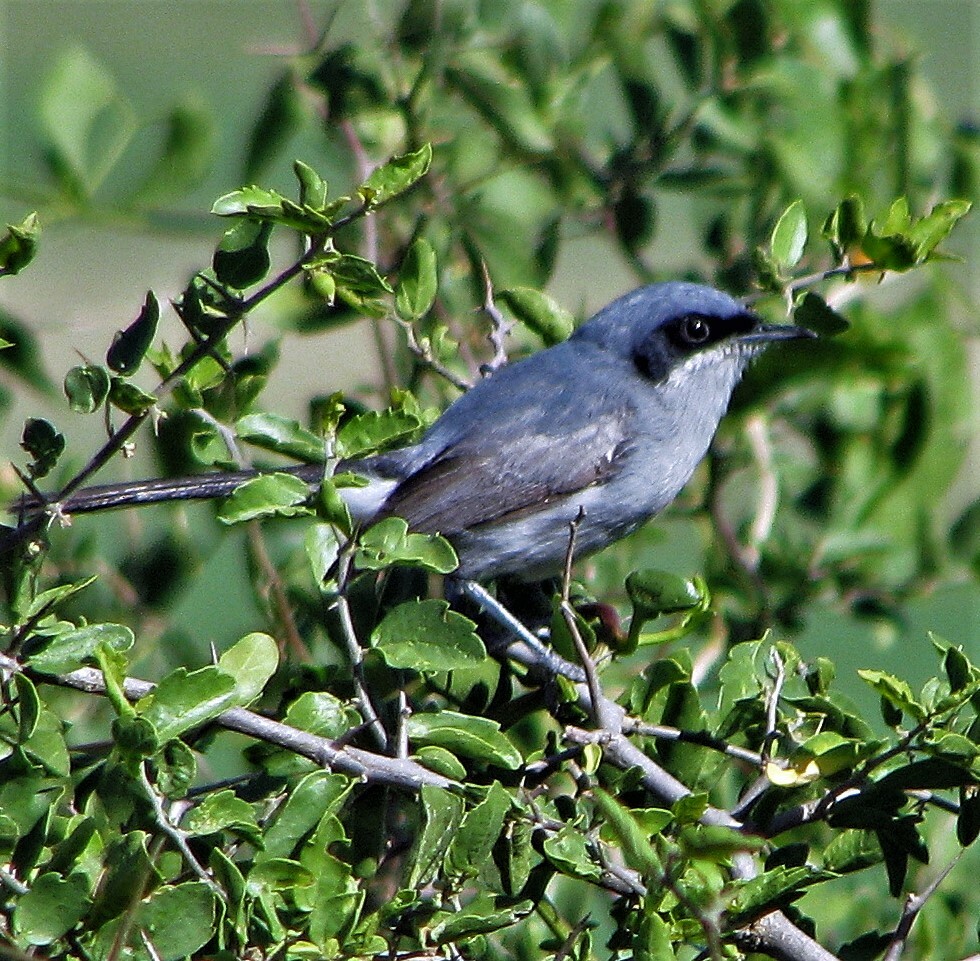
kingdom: Animalia
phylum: Chordata
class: Aves
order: Passeriformes
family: Polioptilidae
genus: Polioptila
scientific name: Polioptila dumicola
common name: Masked gnatcatcher
